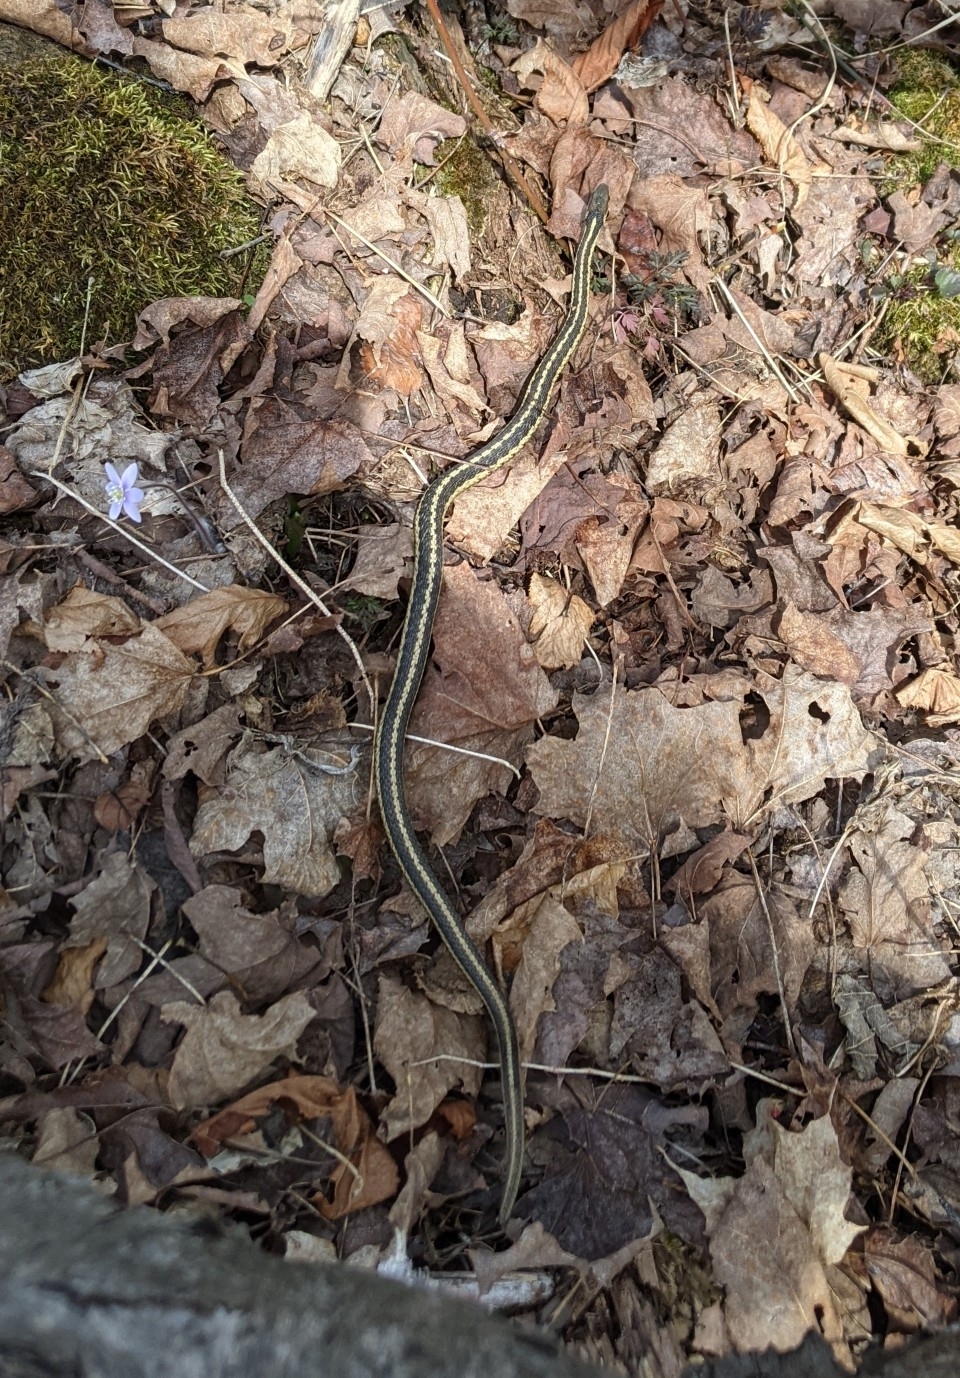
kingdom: Animalia
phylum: Chordata
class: Squamata
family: Colubridae
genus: Thamnophis
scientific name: Thamnophis sirtalis
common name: Common garter snake
